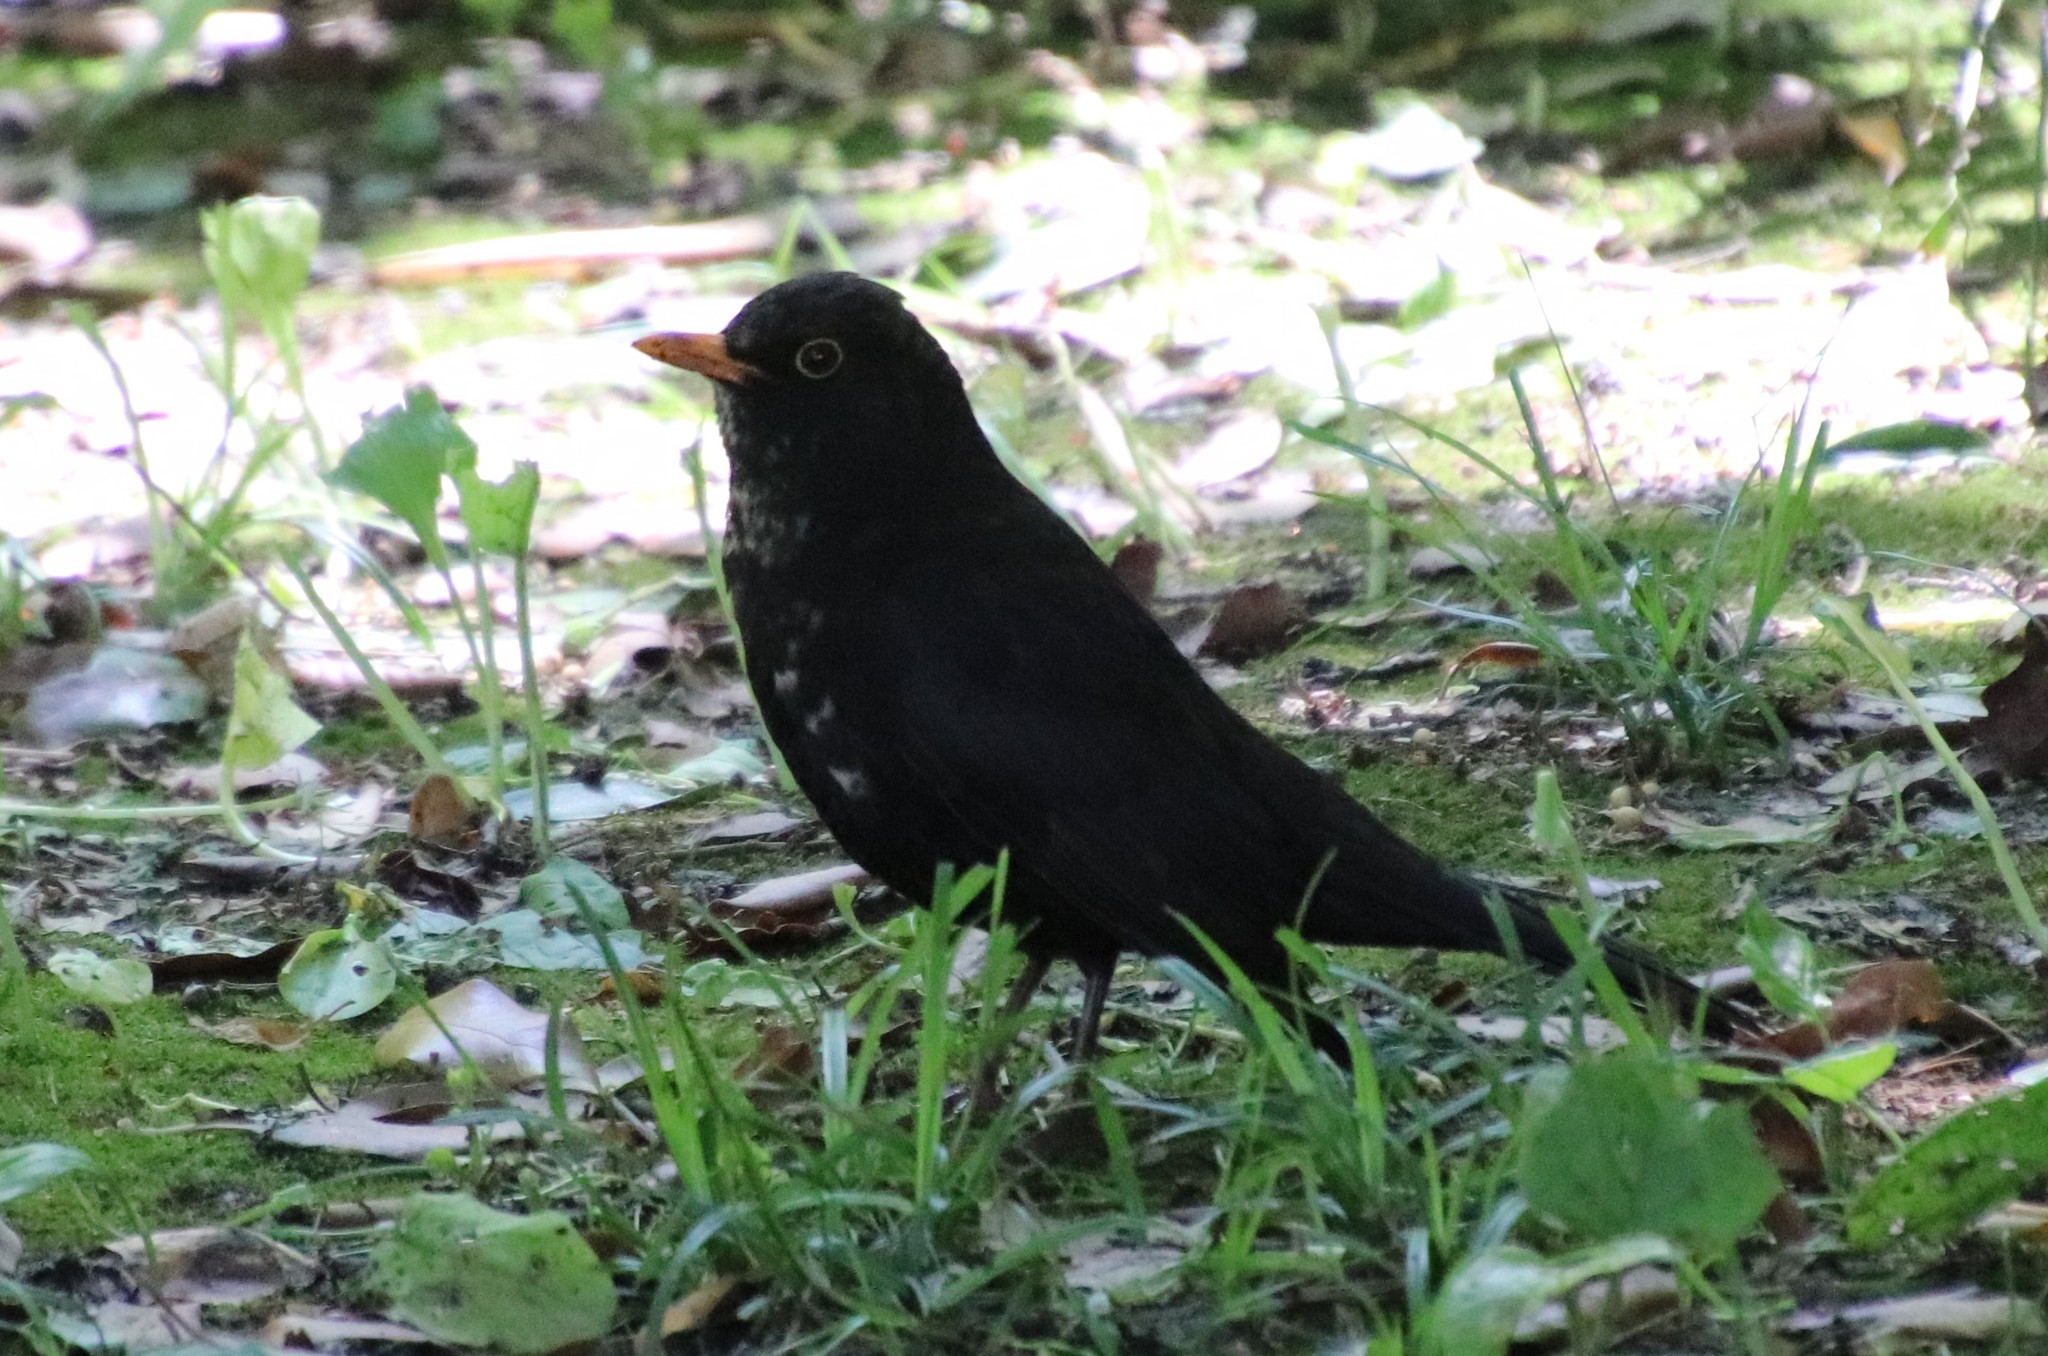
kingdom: Animalia
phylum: Chordata
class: Aves
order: Passeriformes
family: Turdidae
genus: Turdus
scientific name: Turdus merula
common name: Common blackbird
